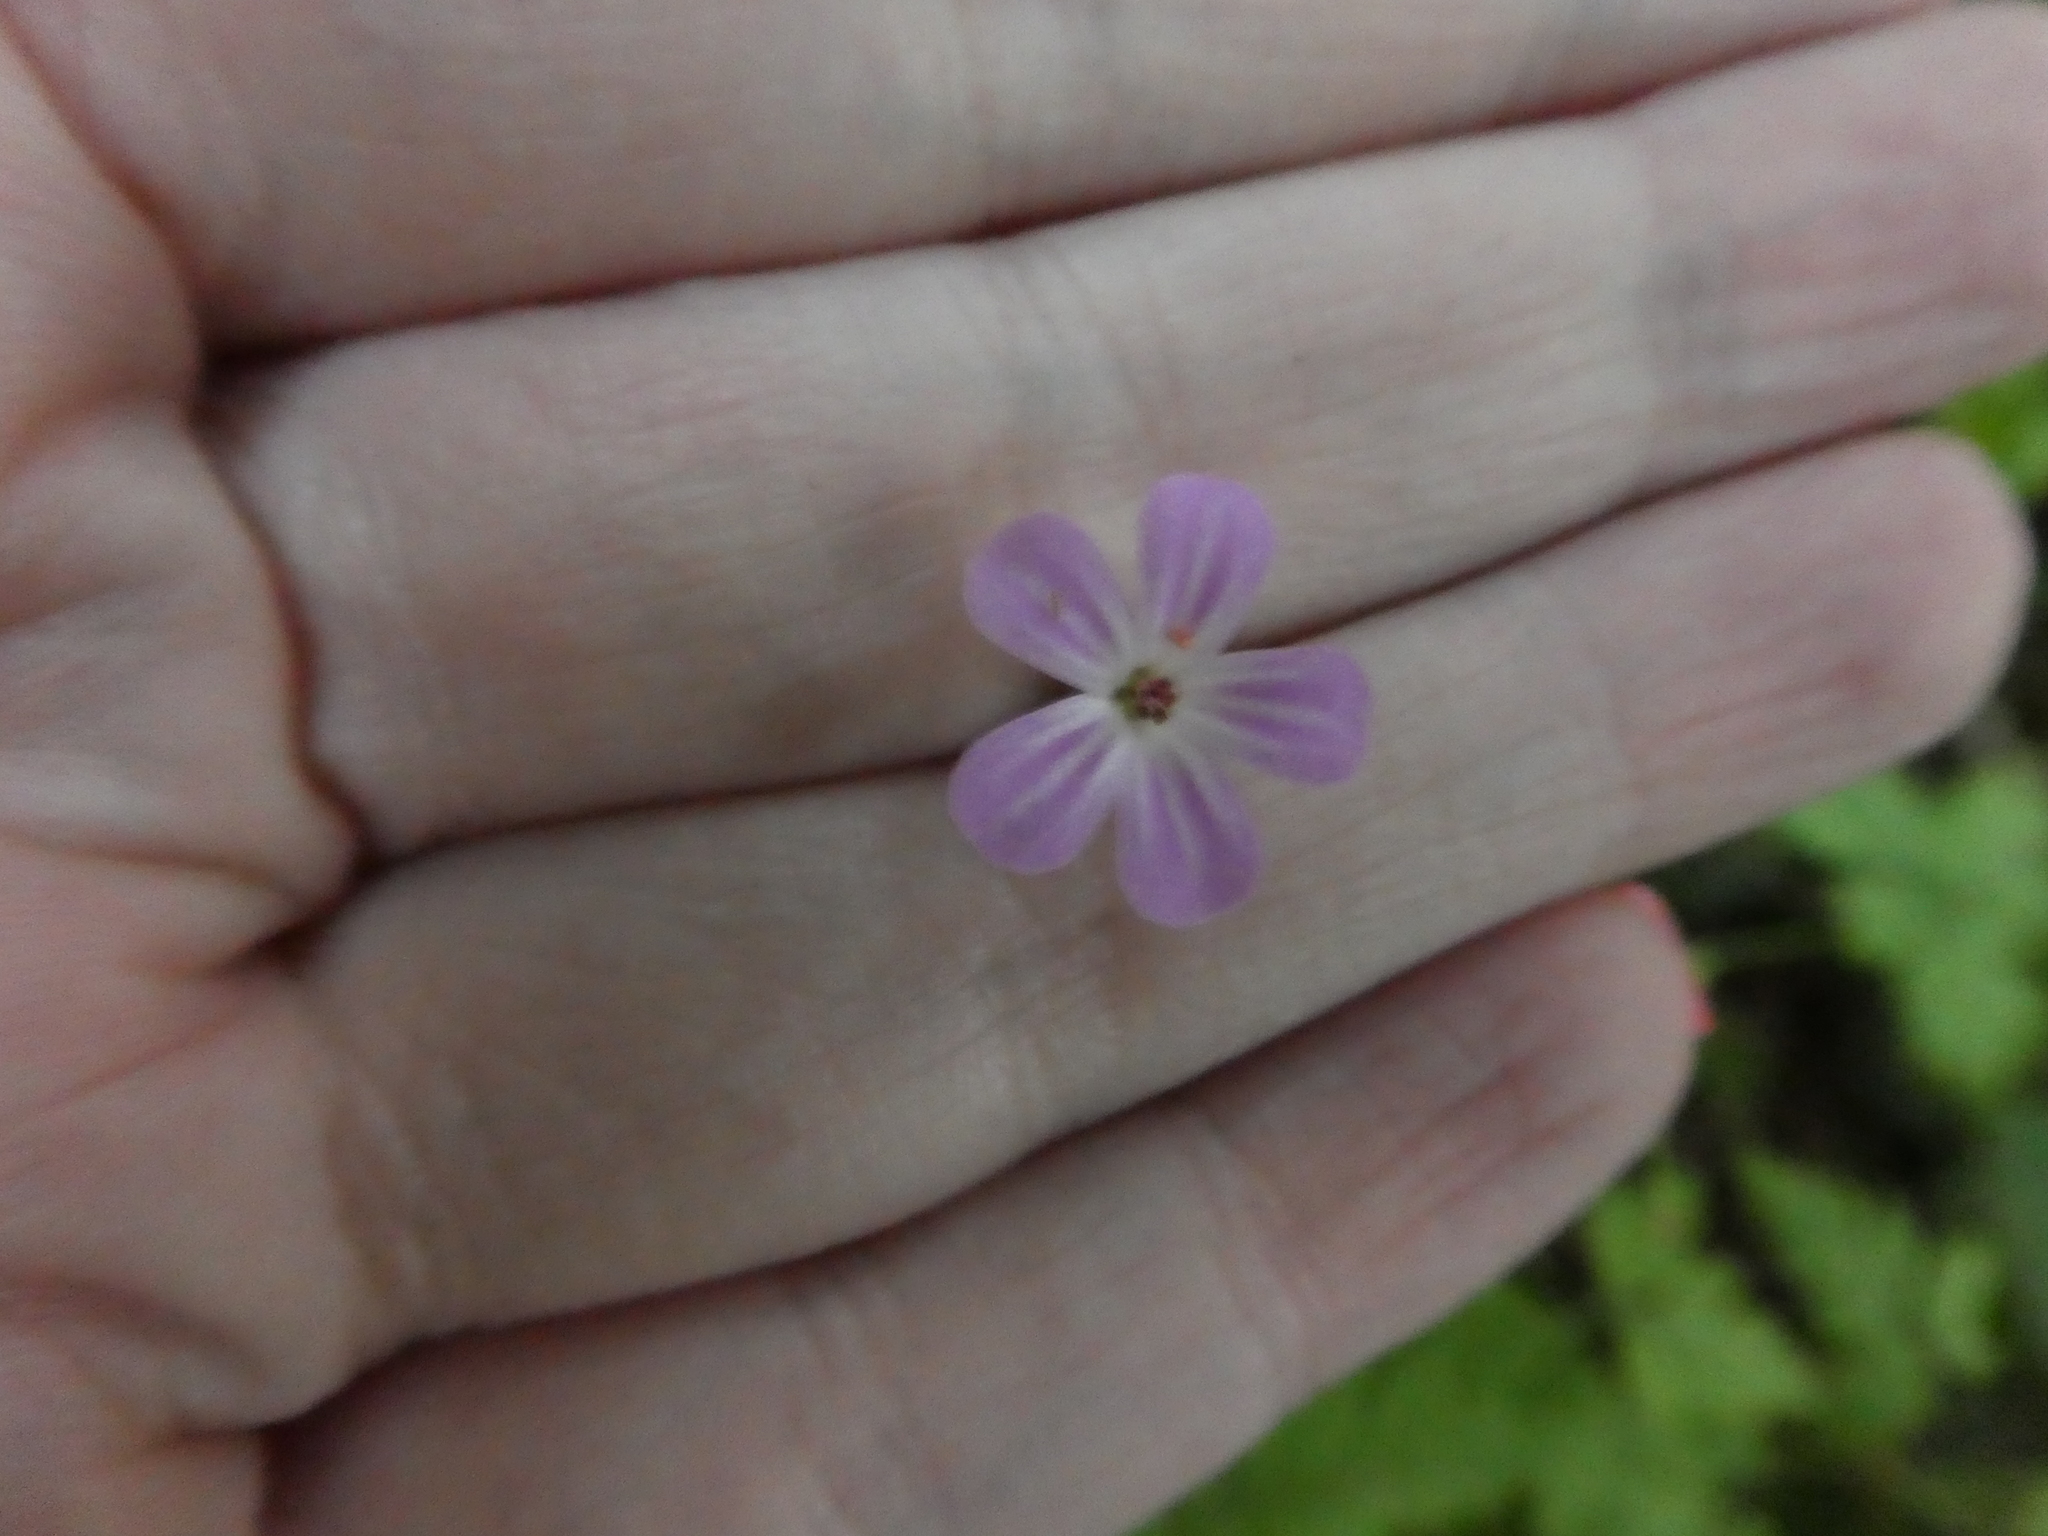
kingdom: Plantae
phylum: Tracheophyta
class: Magnoliopsida
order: Geraniales
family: Geraniaceae
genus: Geranium
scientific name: Geranium robertianum
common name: Herb-robert
